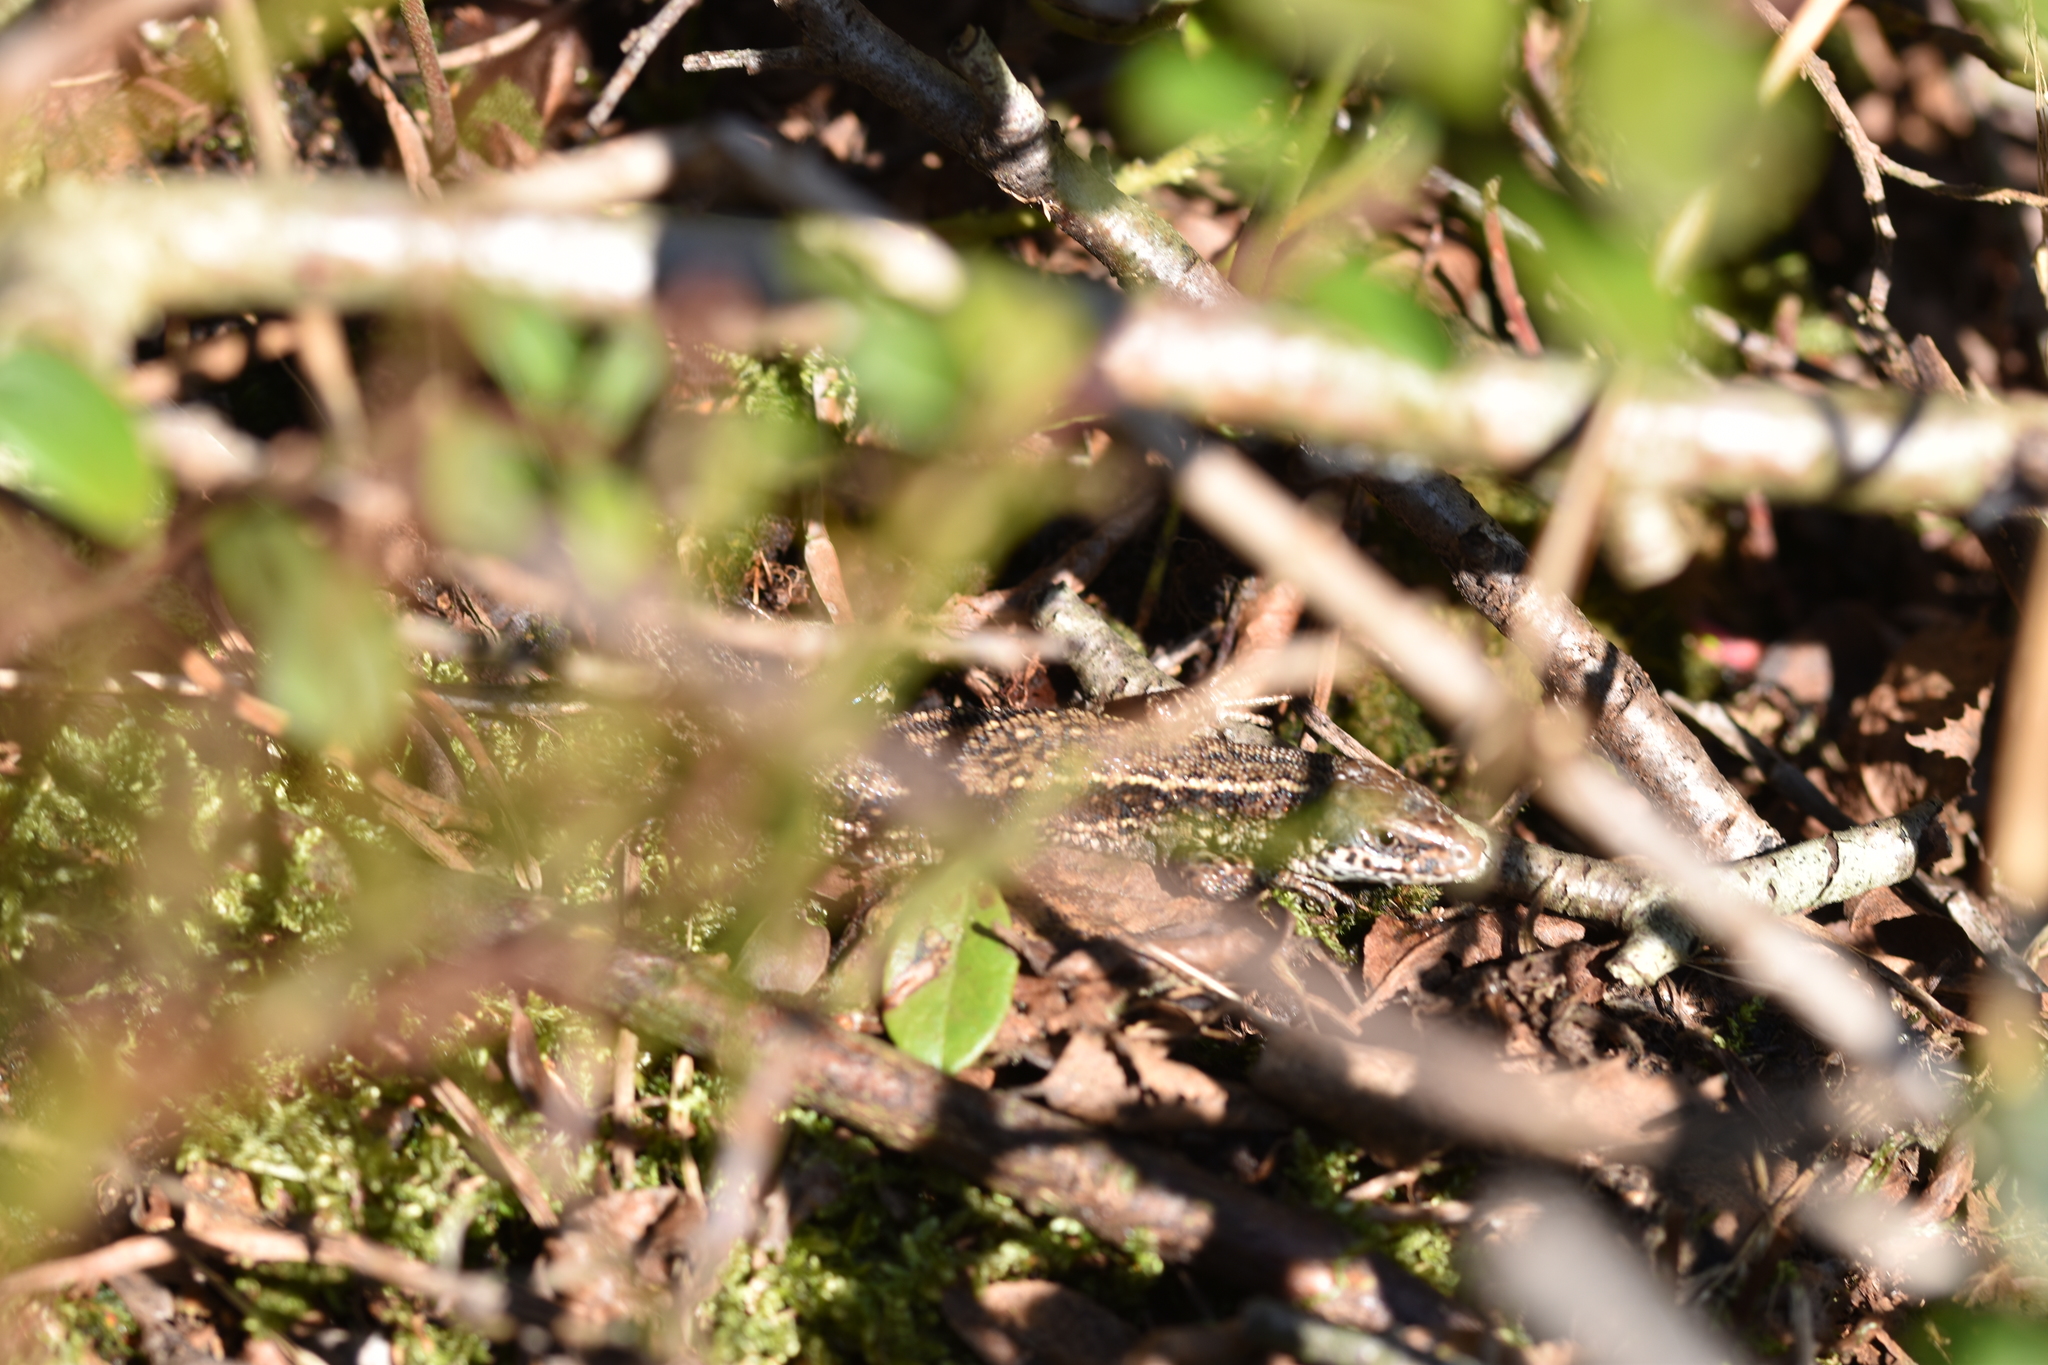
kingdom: Animalia
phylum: Chordata
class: Squamata
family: Lacertidae
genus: Zootoca
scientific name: Zootoca vivipara
